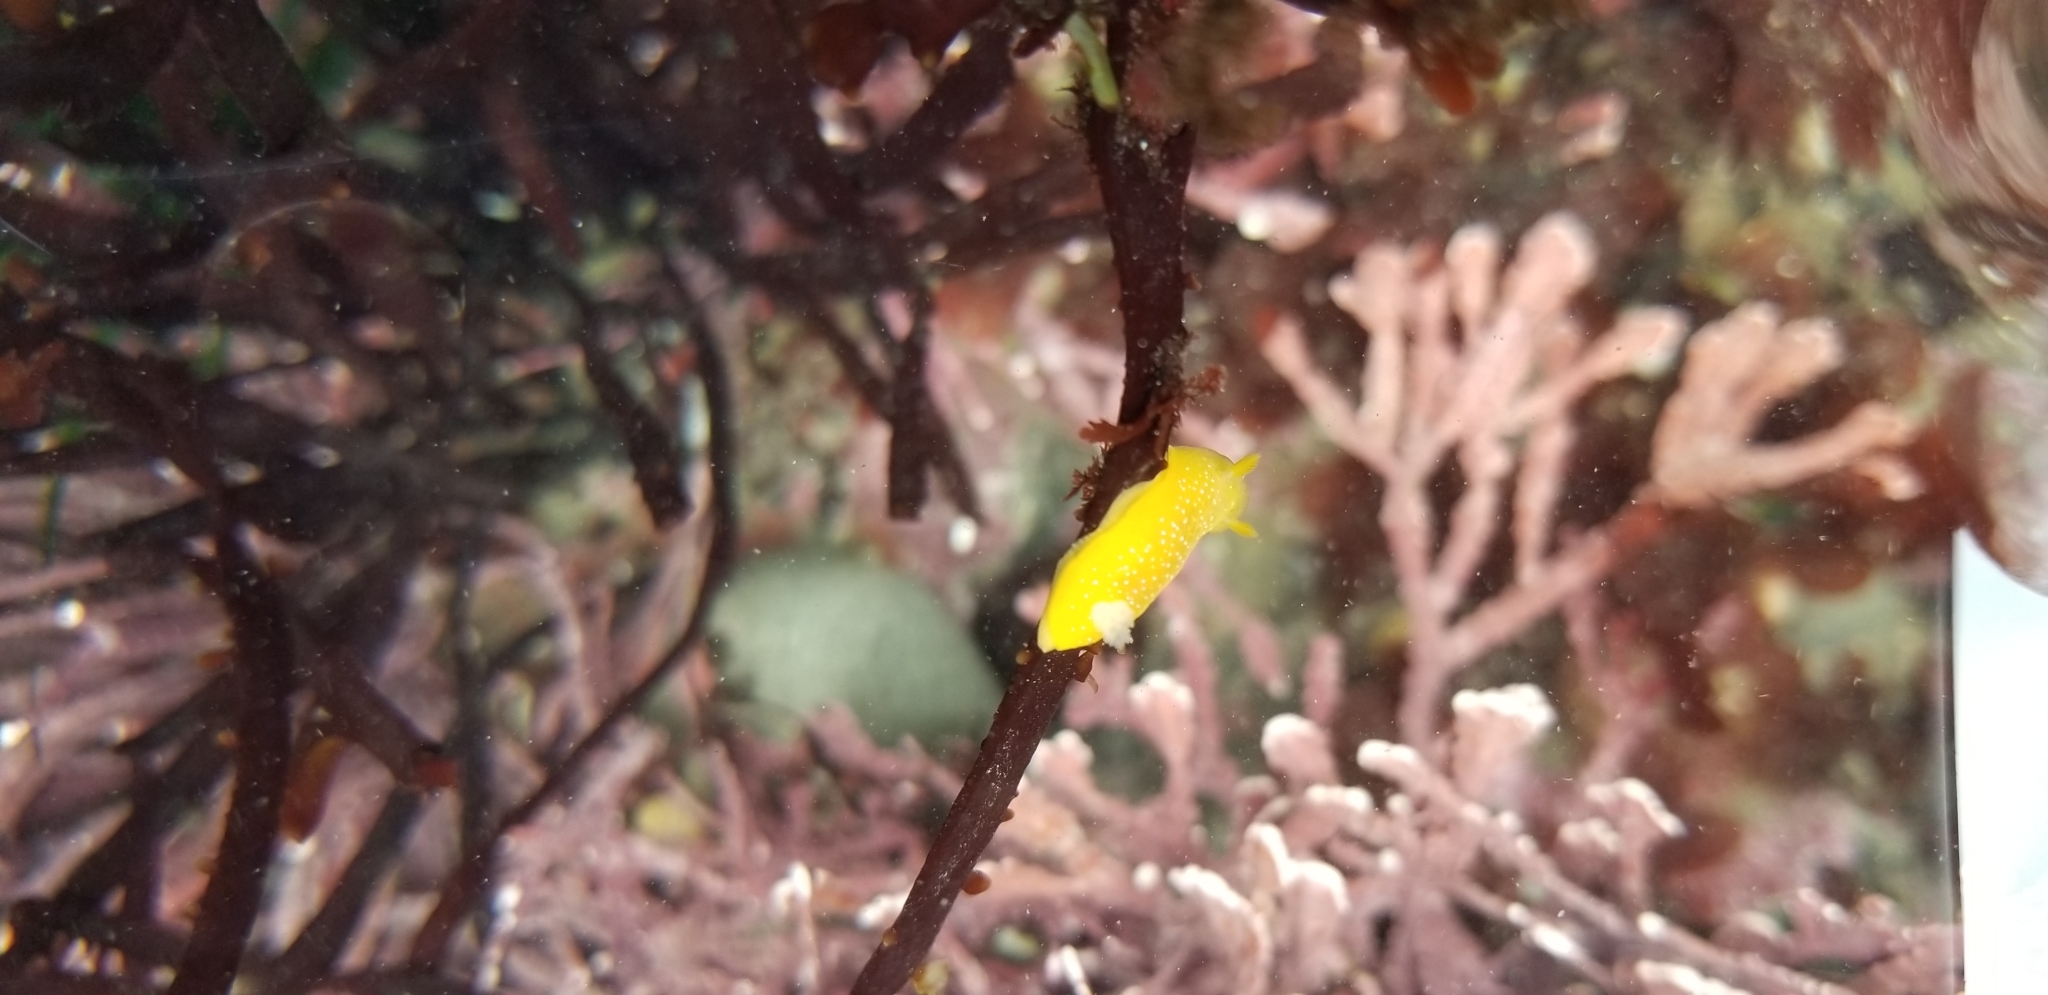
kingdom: Animalia
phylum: Mollusca
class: Gastropoda
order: Nudibranchia
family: Dendrodorididae
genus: Doriopsilla
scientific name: Doriopsilla fulva
